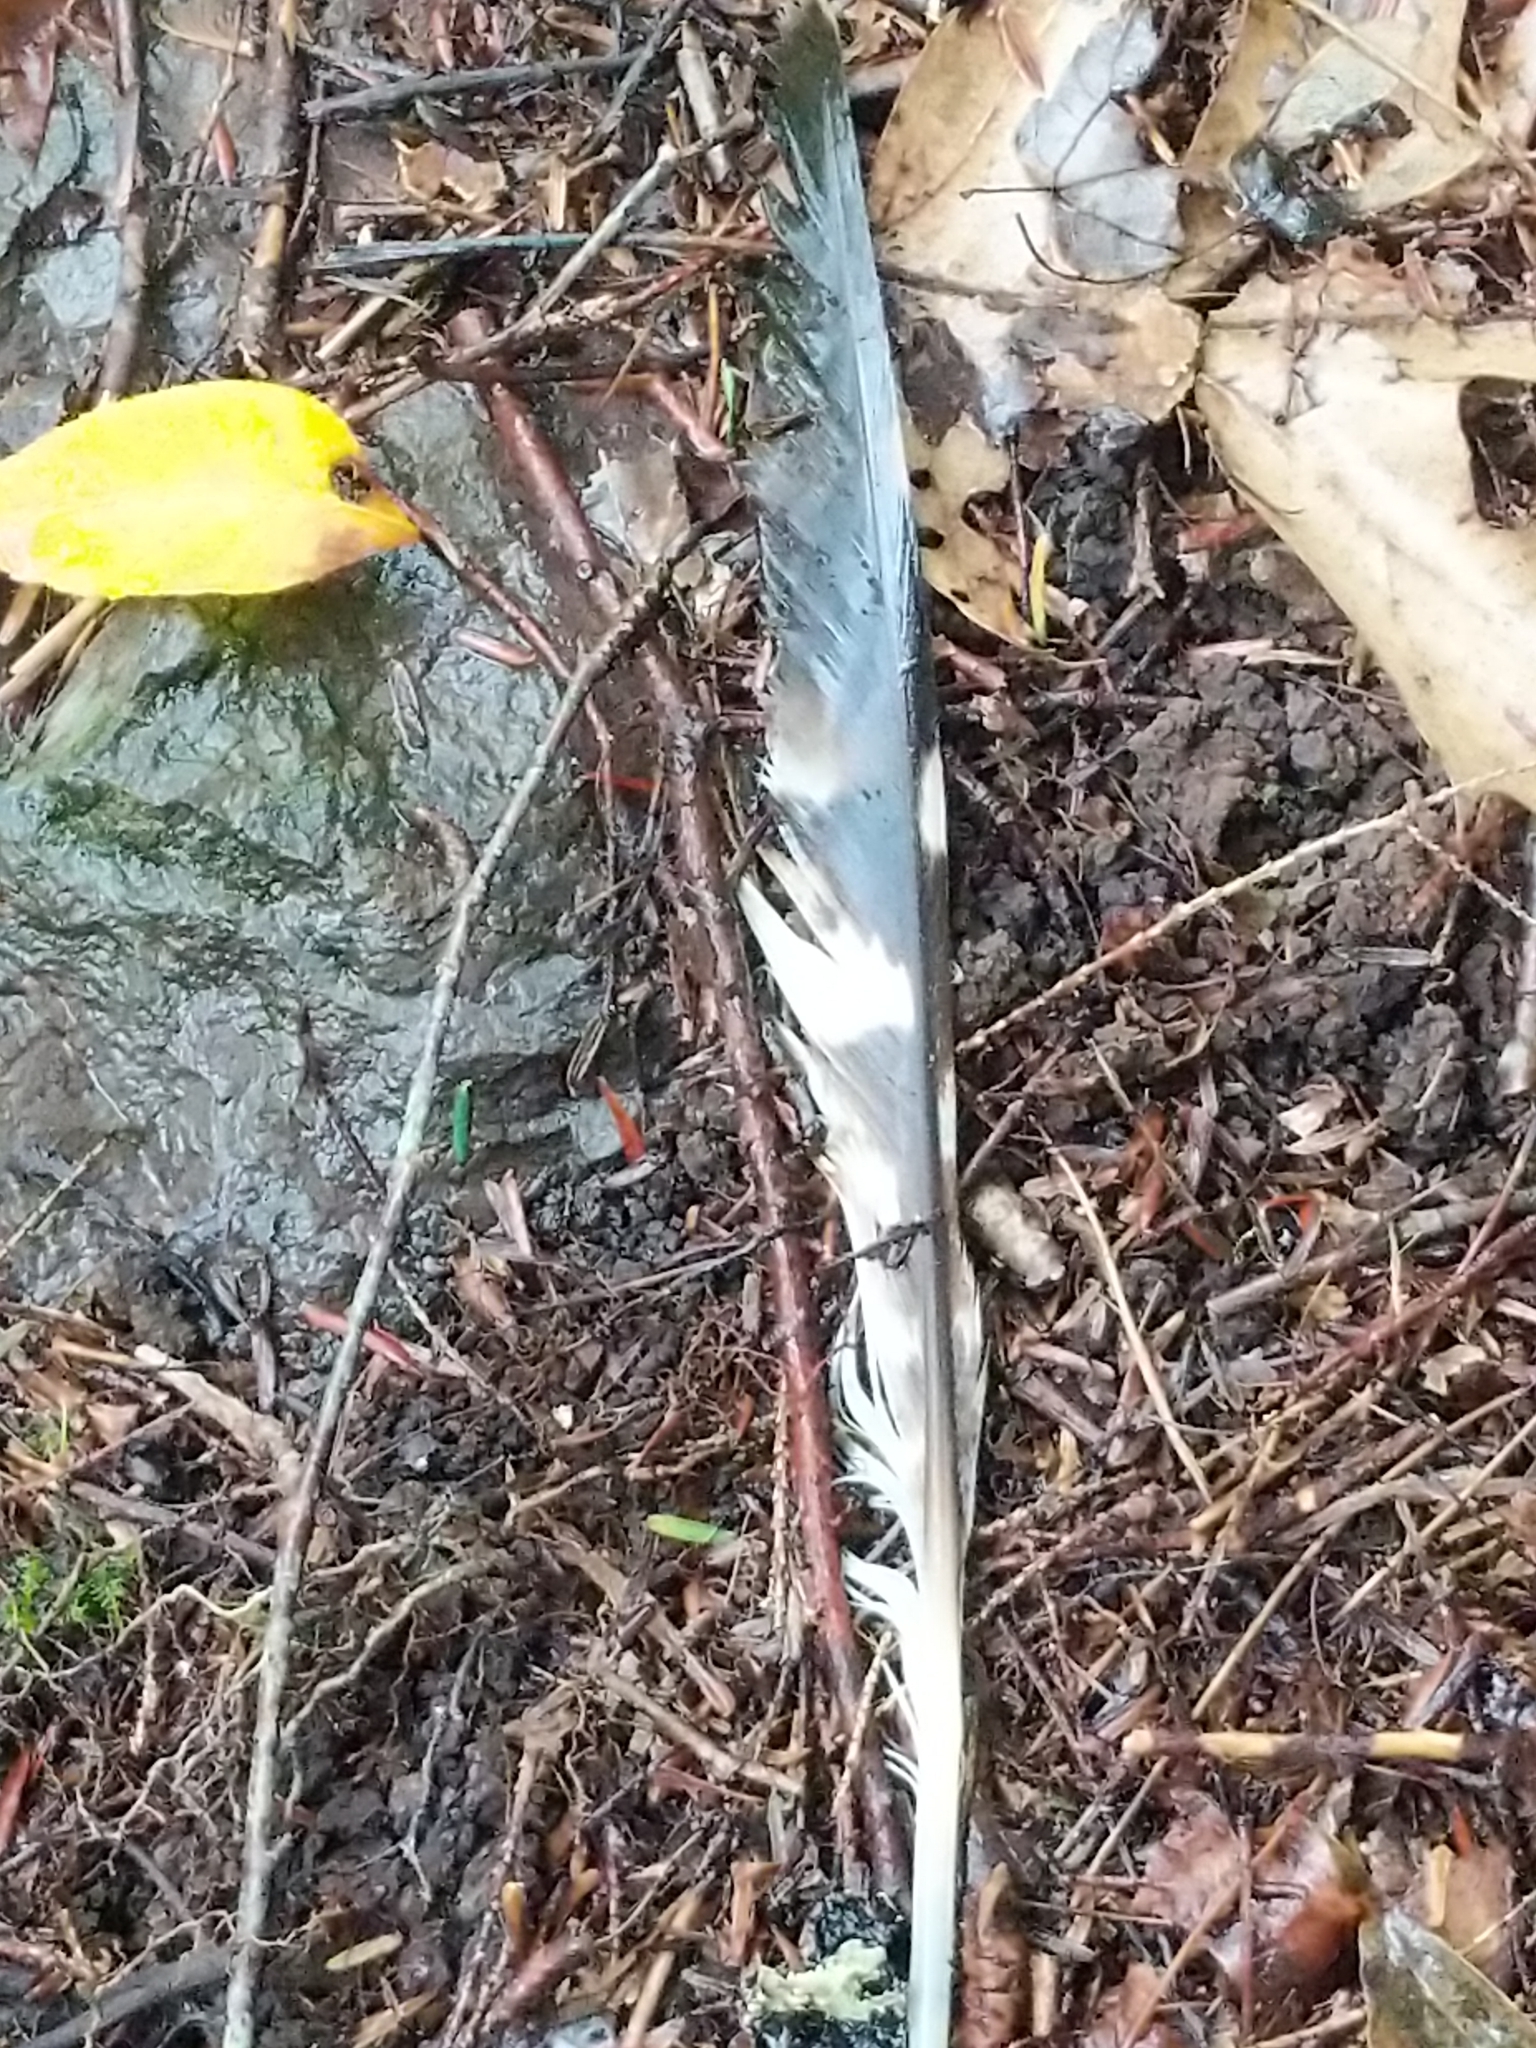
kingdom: Animalia
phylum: Chordata
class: Aves
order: Accipitriformes
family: Accipitridae
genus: Buteo
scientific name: Buteo lineatus
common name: Red-shouldered hawk
